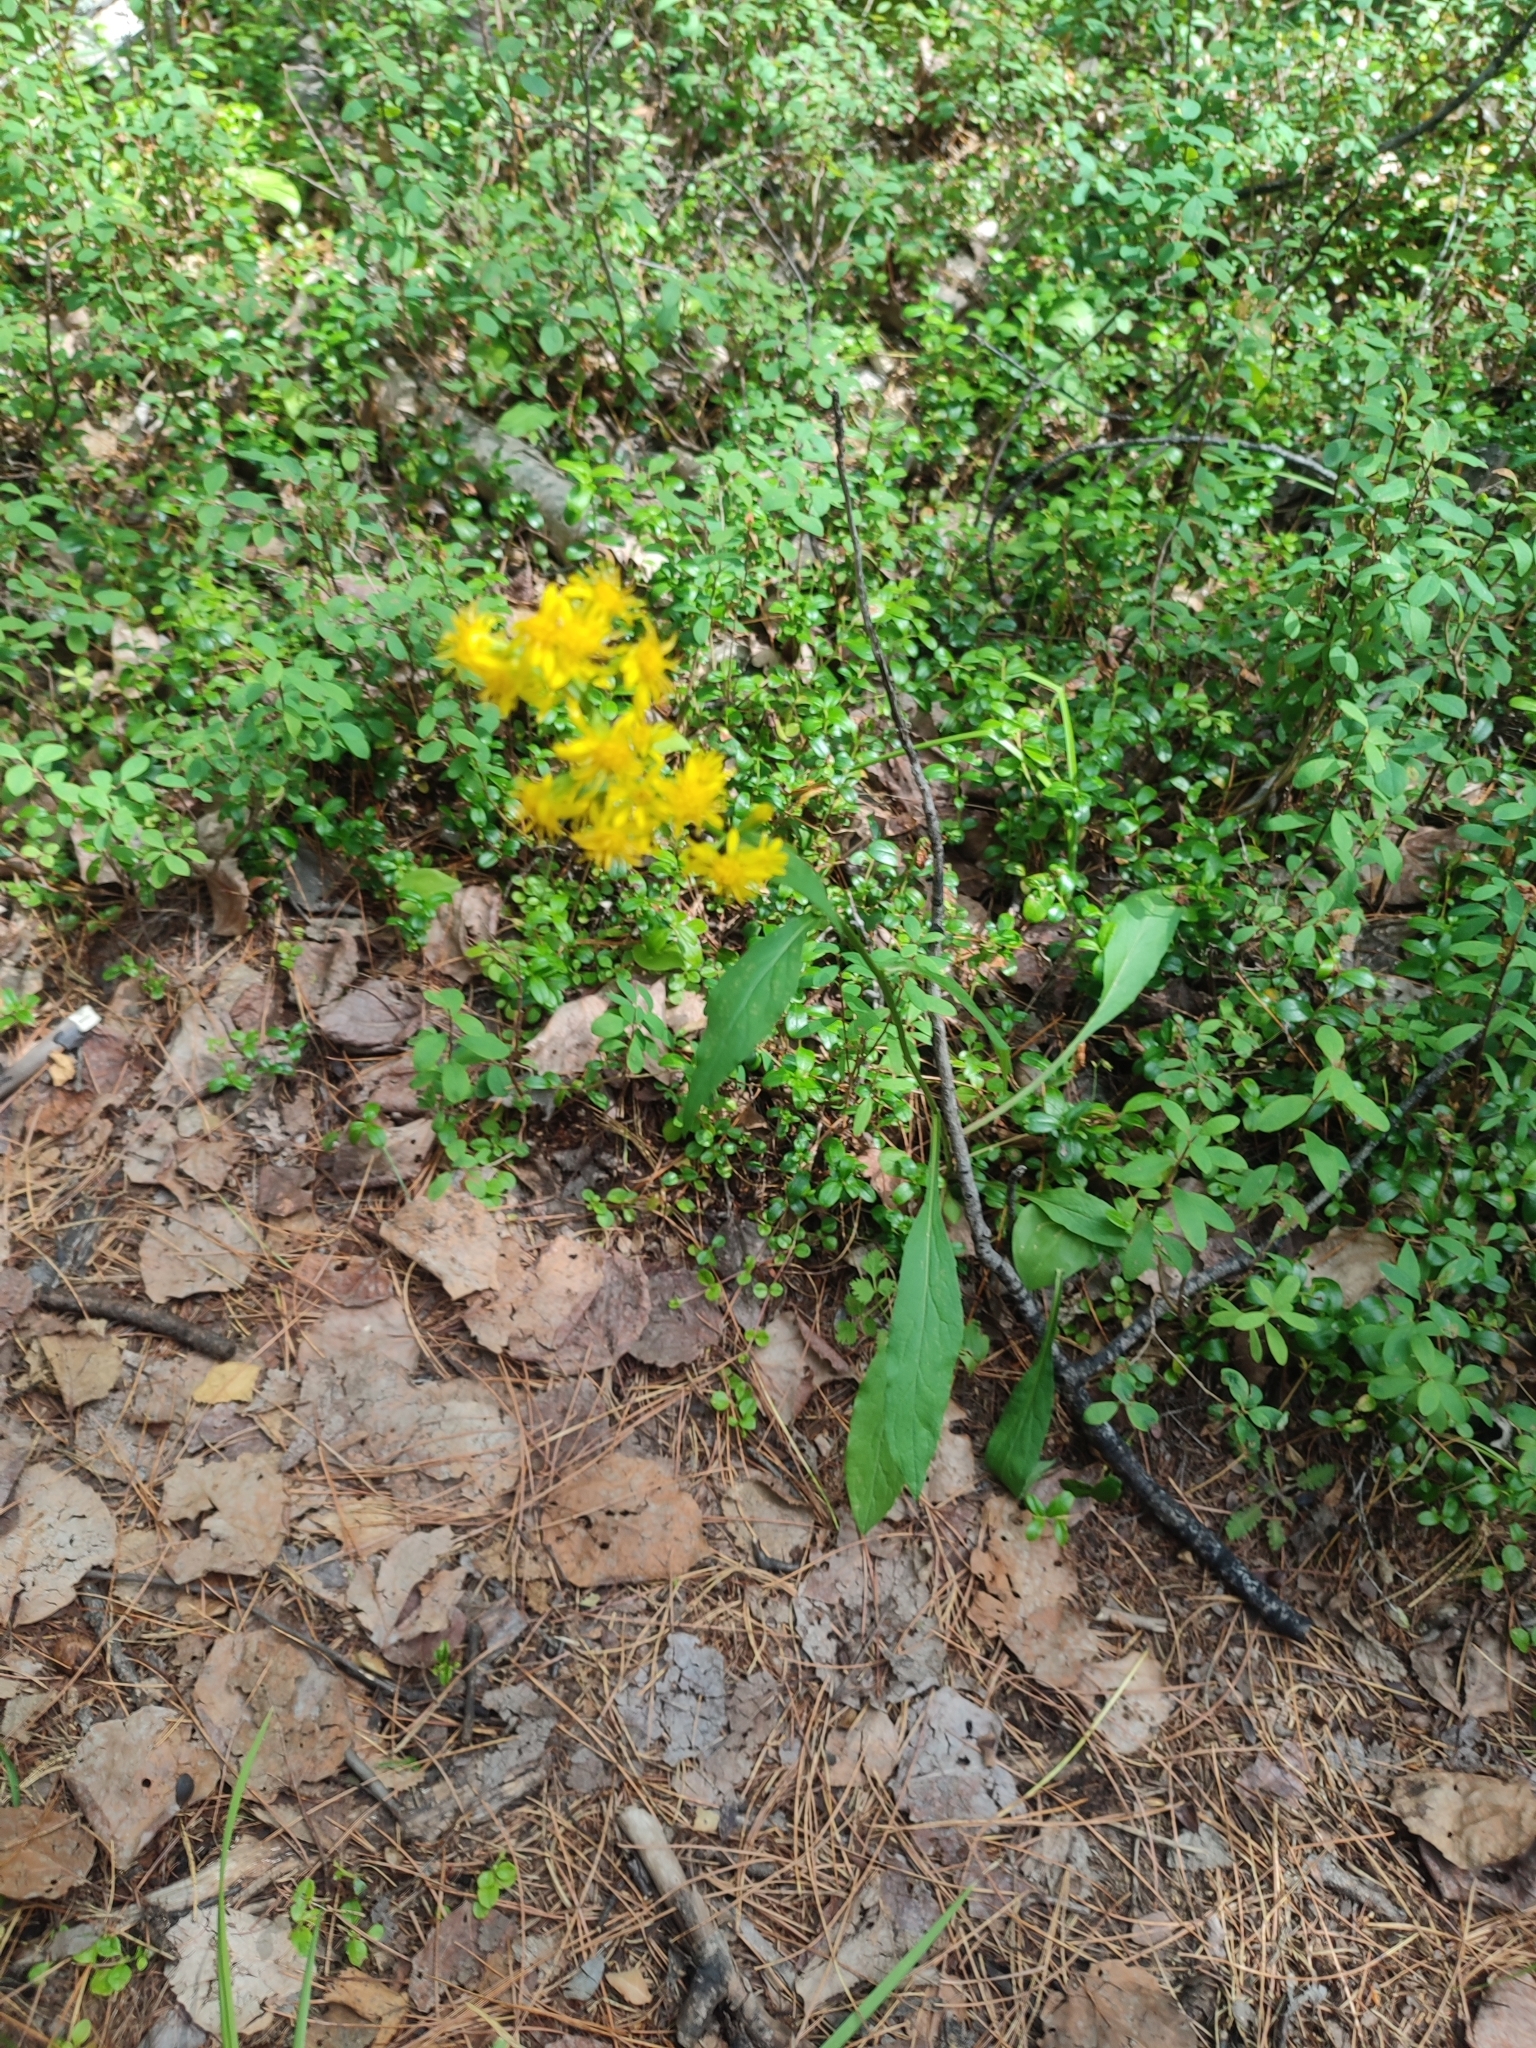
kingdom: Plantae
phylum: Tracheophyta
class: Magnoliopsida
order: Asterales
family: Asteraceae
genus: Solidago
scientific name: Solidago dahurica
